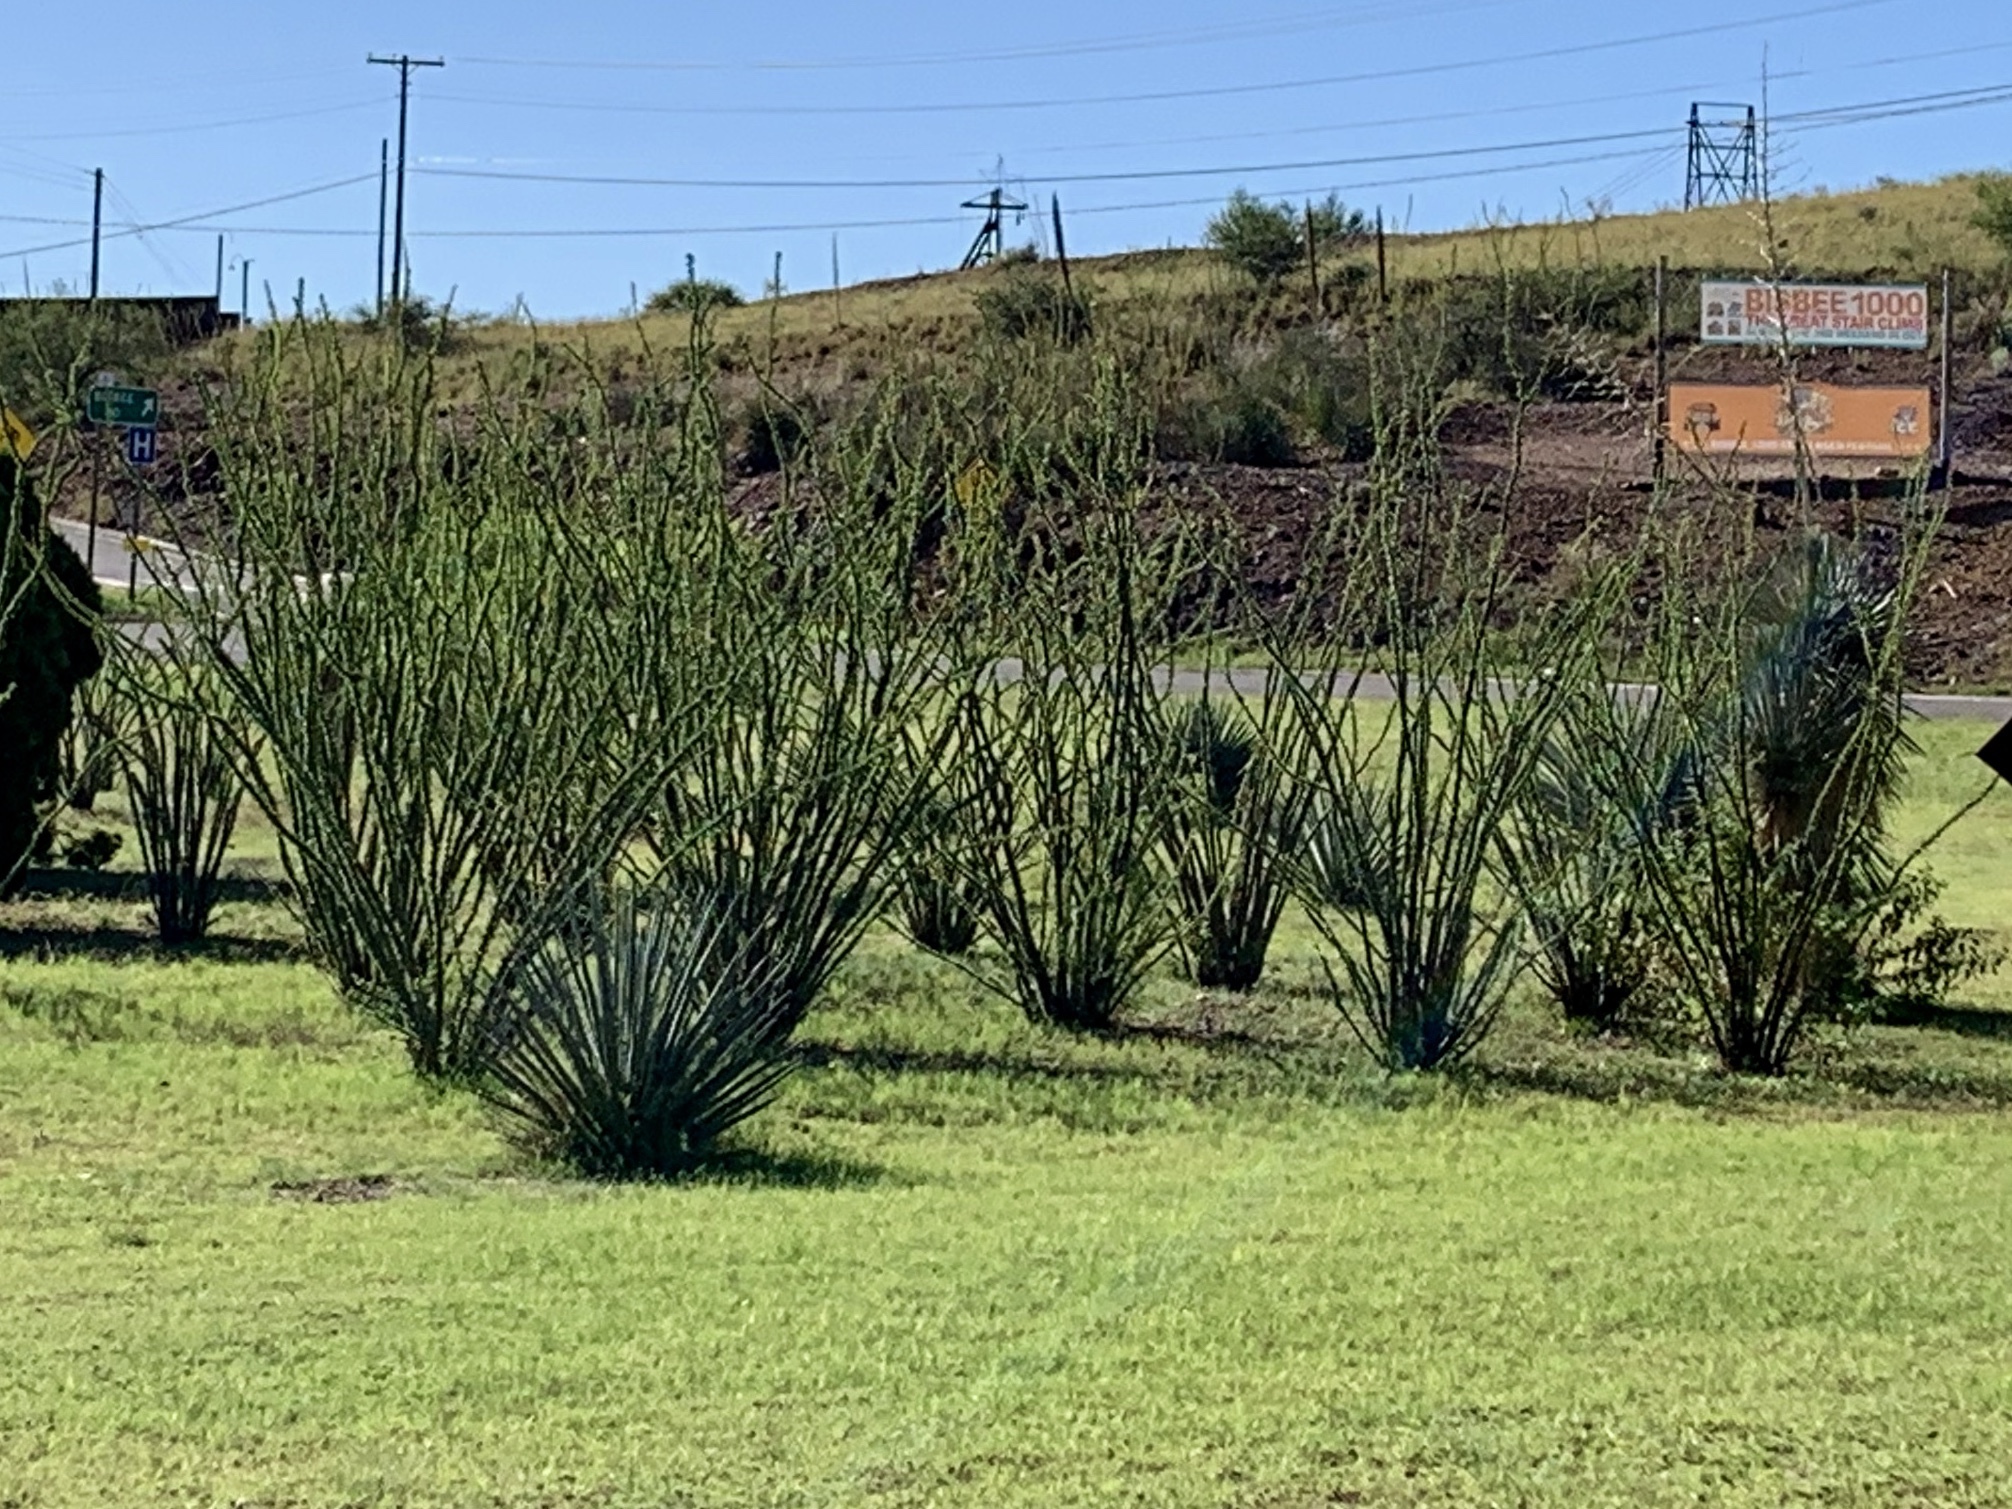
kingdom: Plantae
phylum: Tracheophyta
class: Magnoliopsida
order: Ericales
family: Fouquieriaceae
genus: Fouquieria
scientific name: Fouquieria splendens
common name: Vine-cactus
